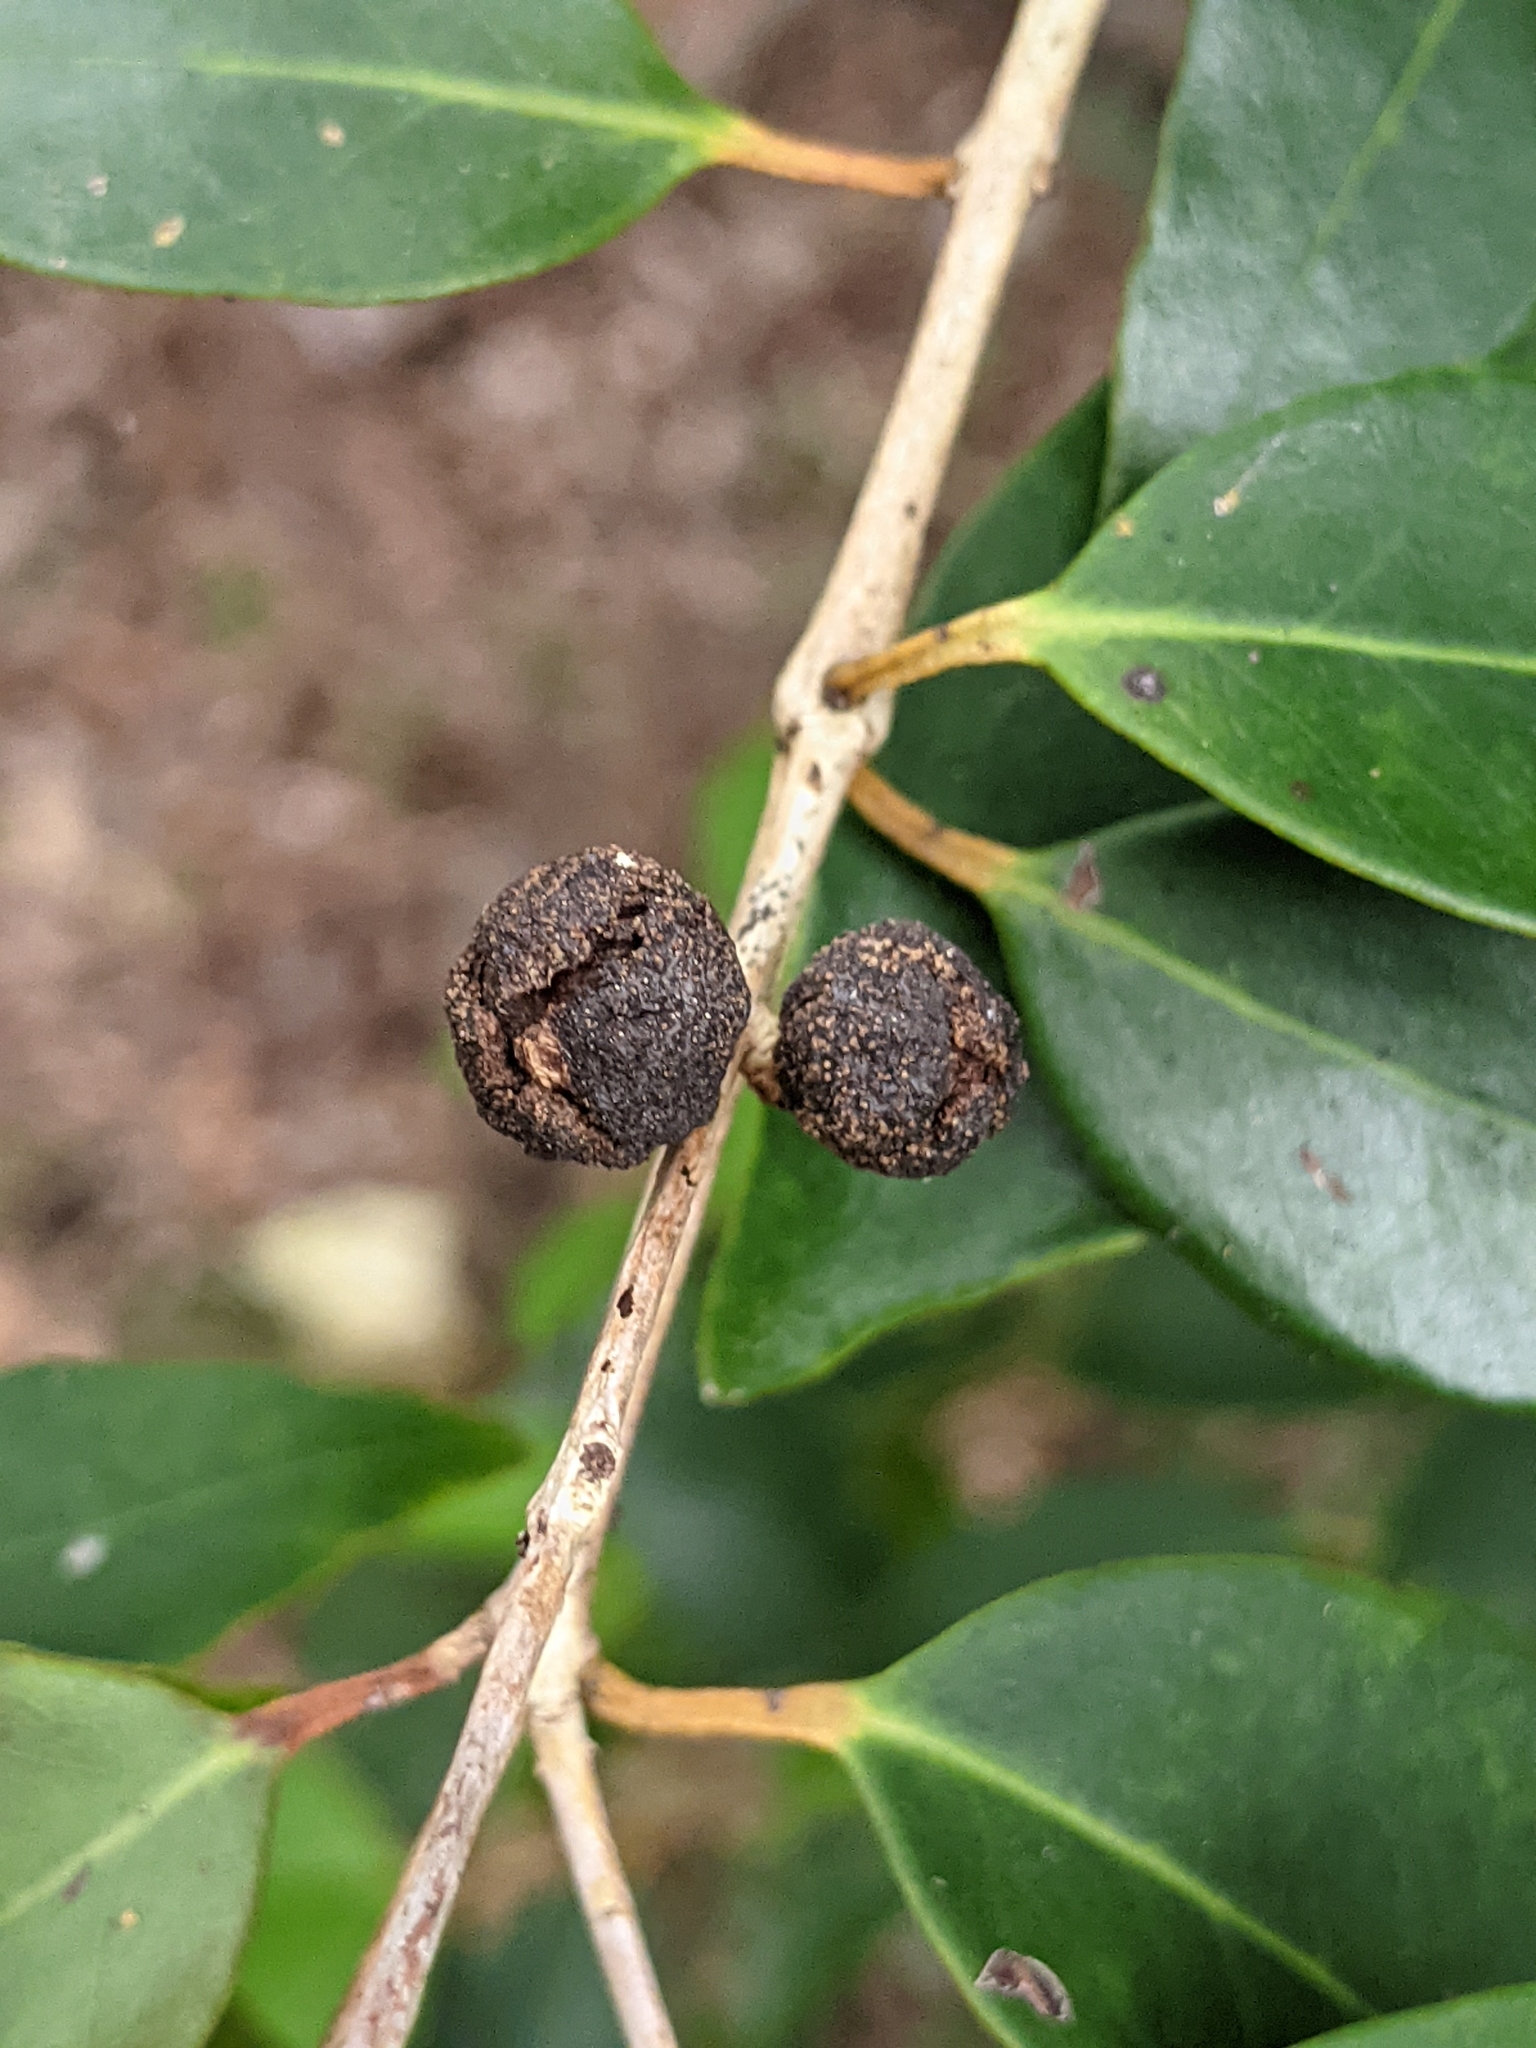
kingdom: Plantae
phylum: Tracheophyta
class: Magnoliopsida
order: Myrtales
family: Myrtaceae
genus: Eugenia
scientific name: Eugenia axillaris
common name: Choaky berry
